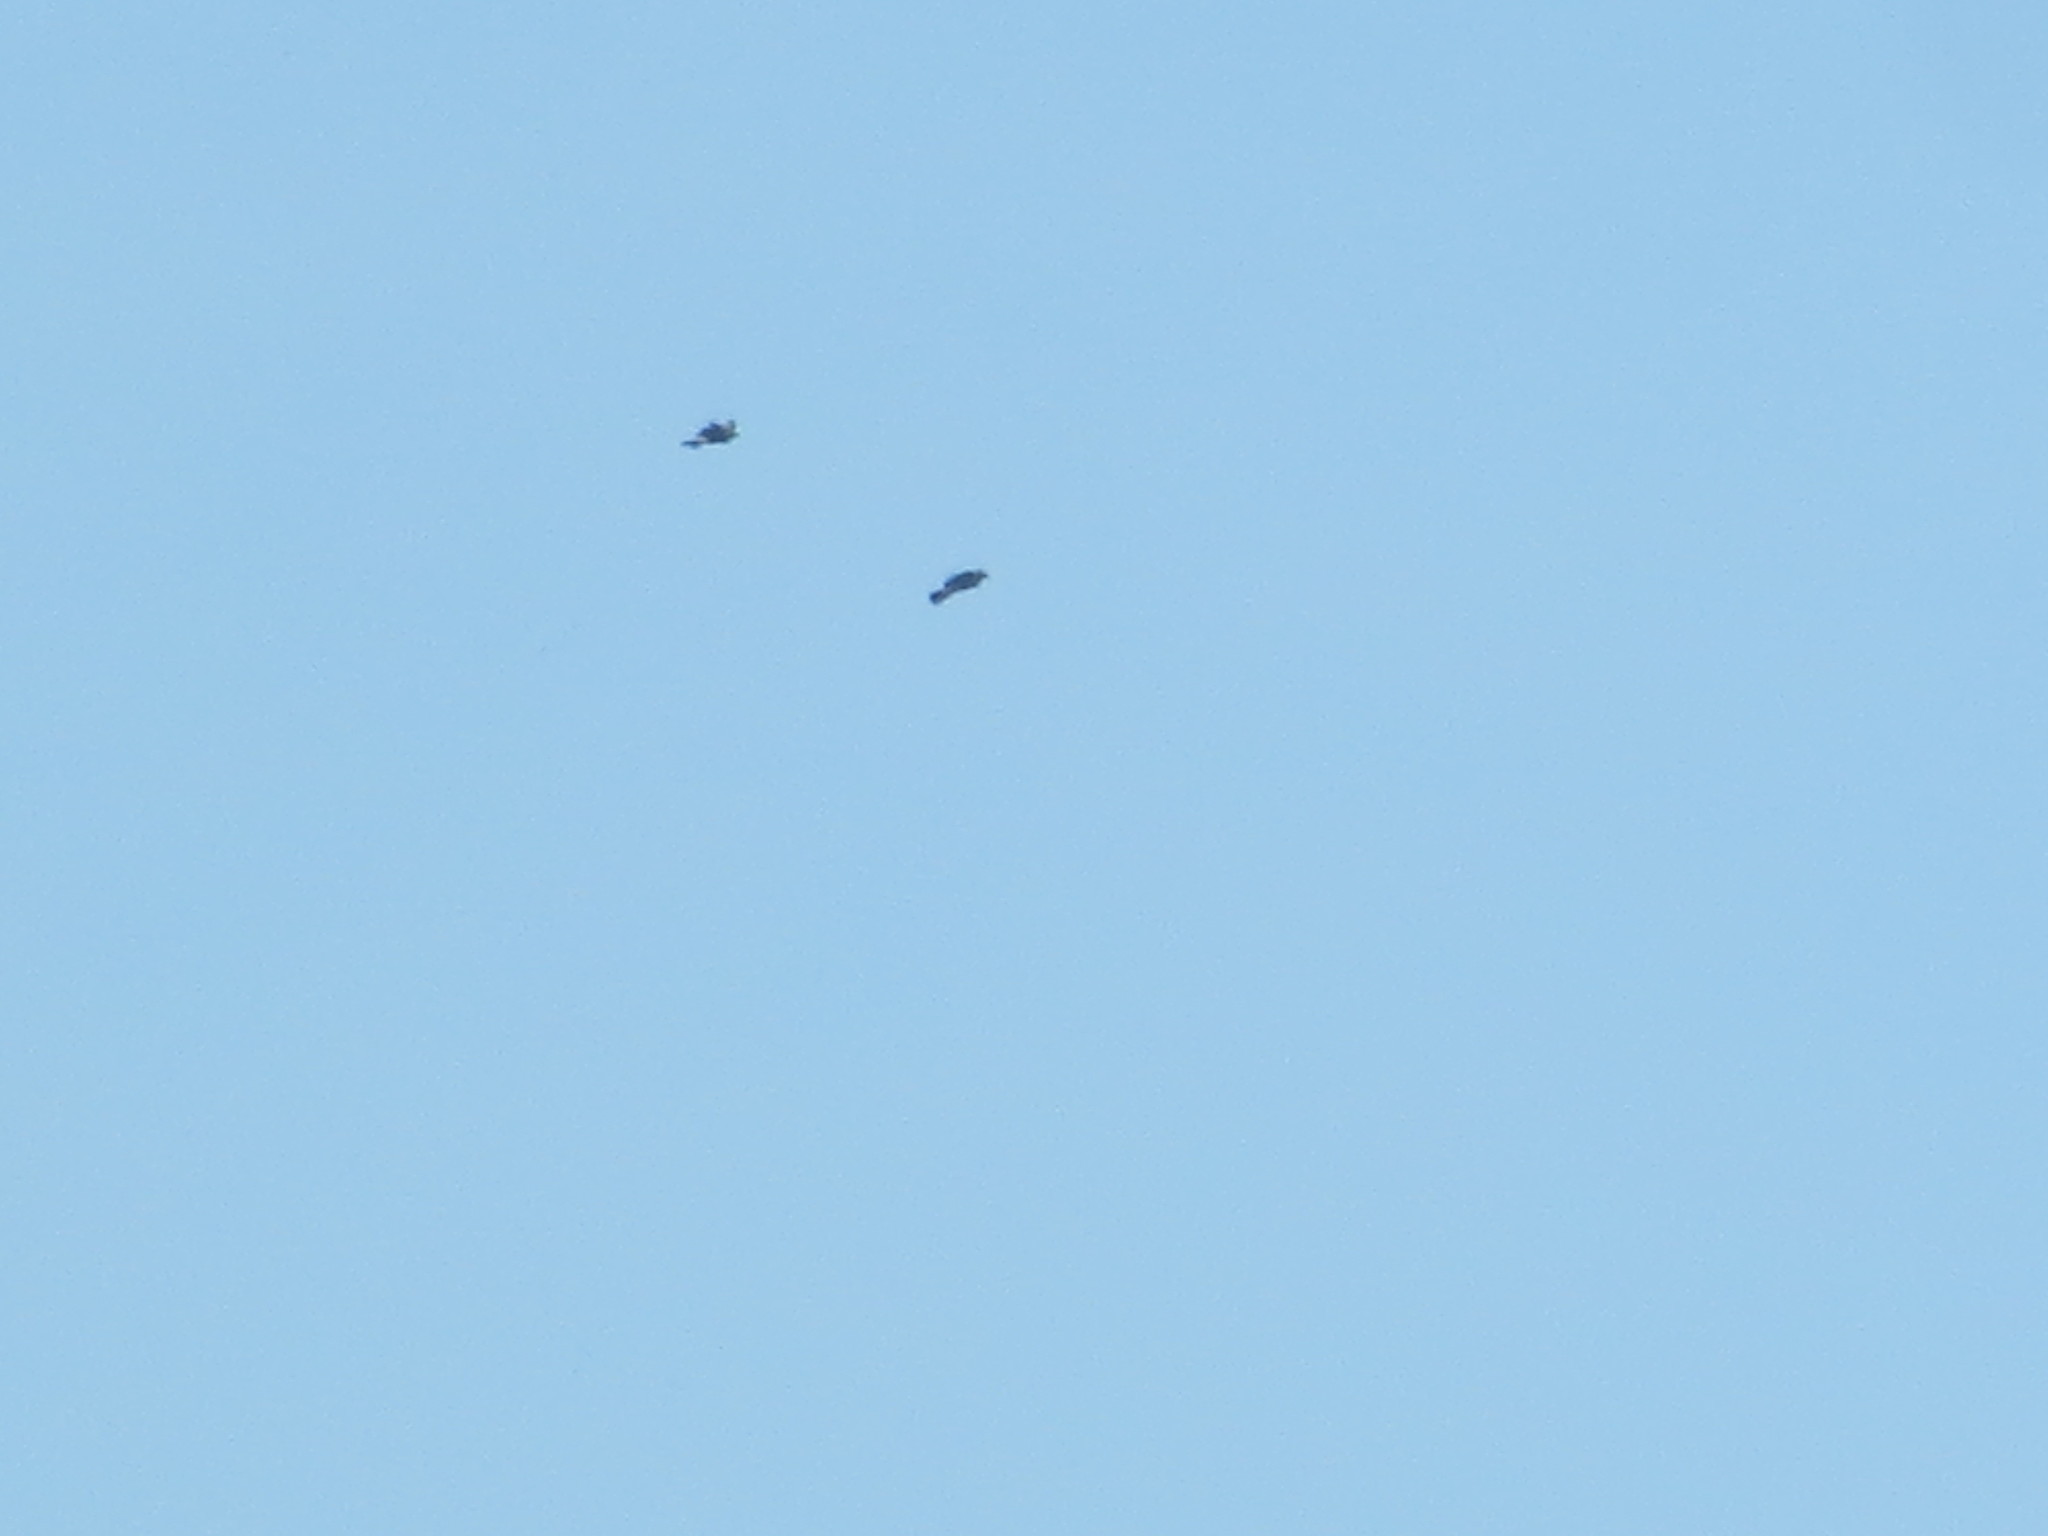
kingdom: Animalia
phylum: Chordata
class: Aves
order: Accipitriformes
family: Accipitridae
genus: Ictinia
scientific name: Ictinia mississippiensis
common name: Mississippi kite
